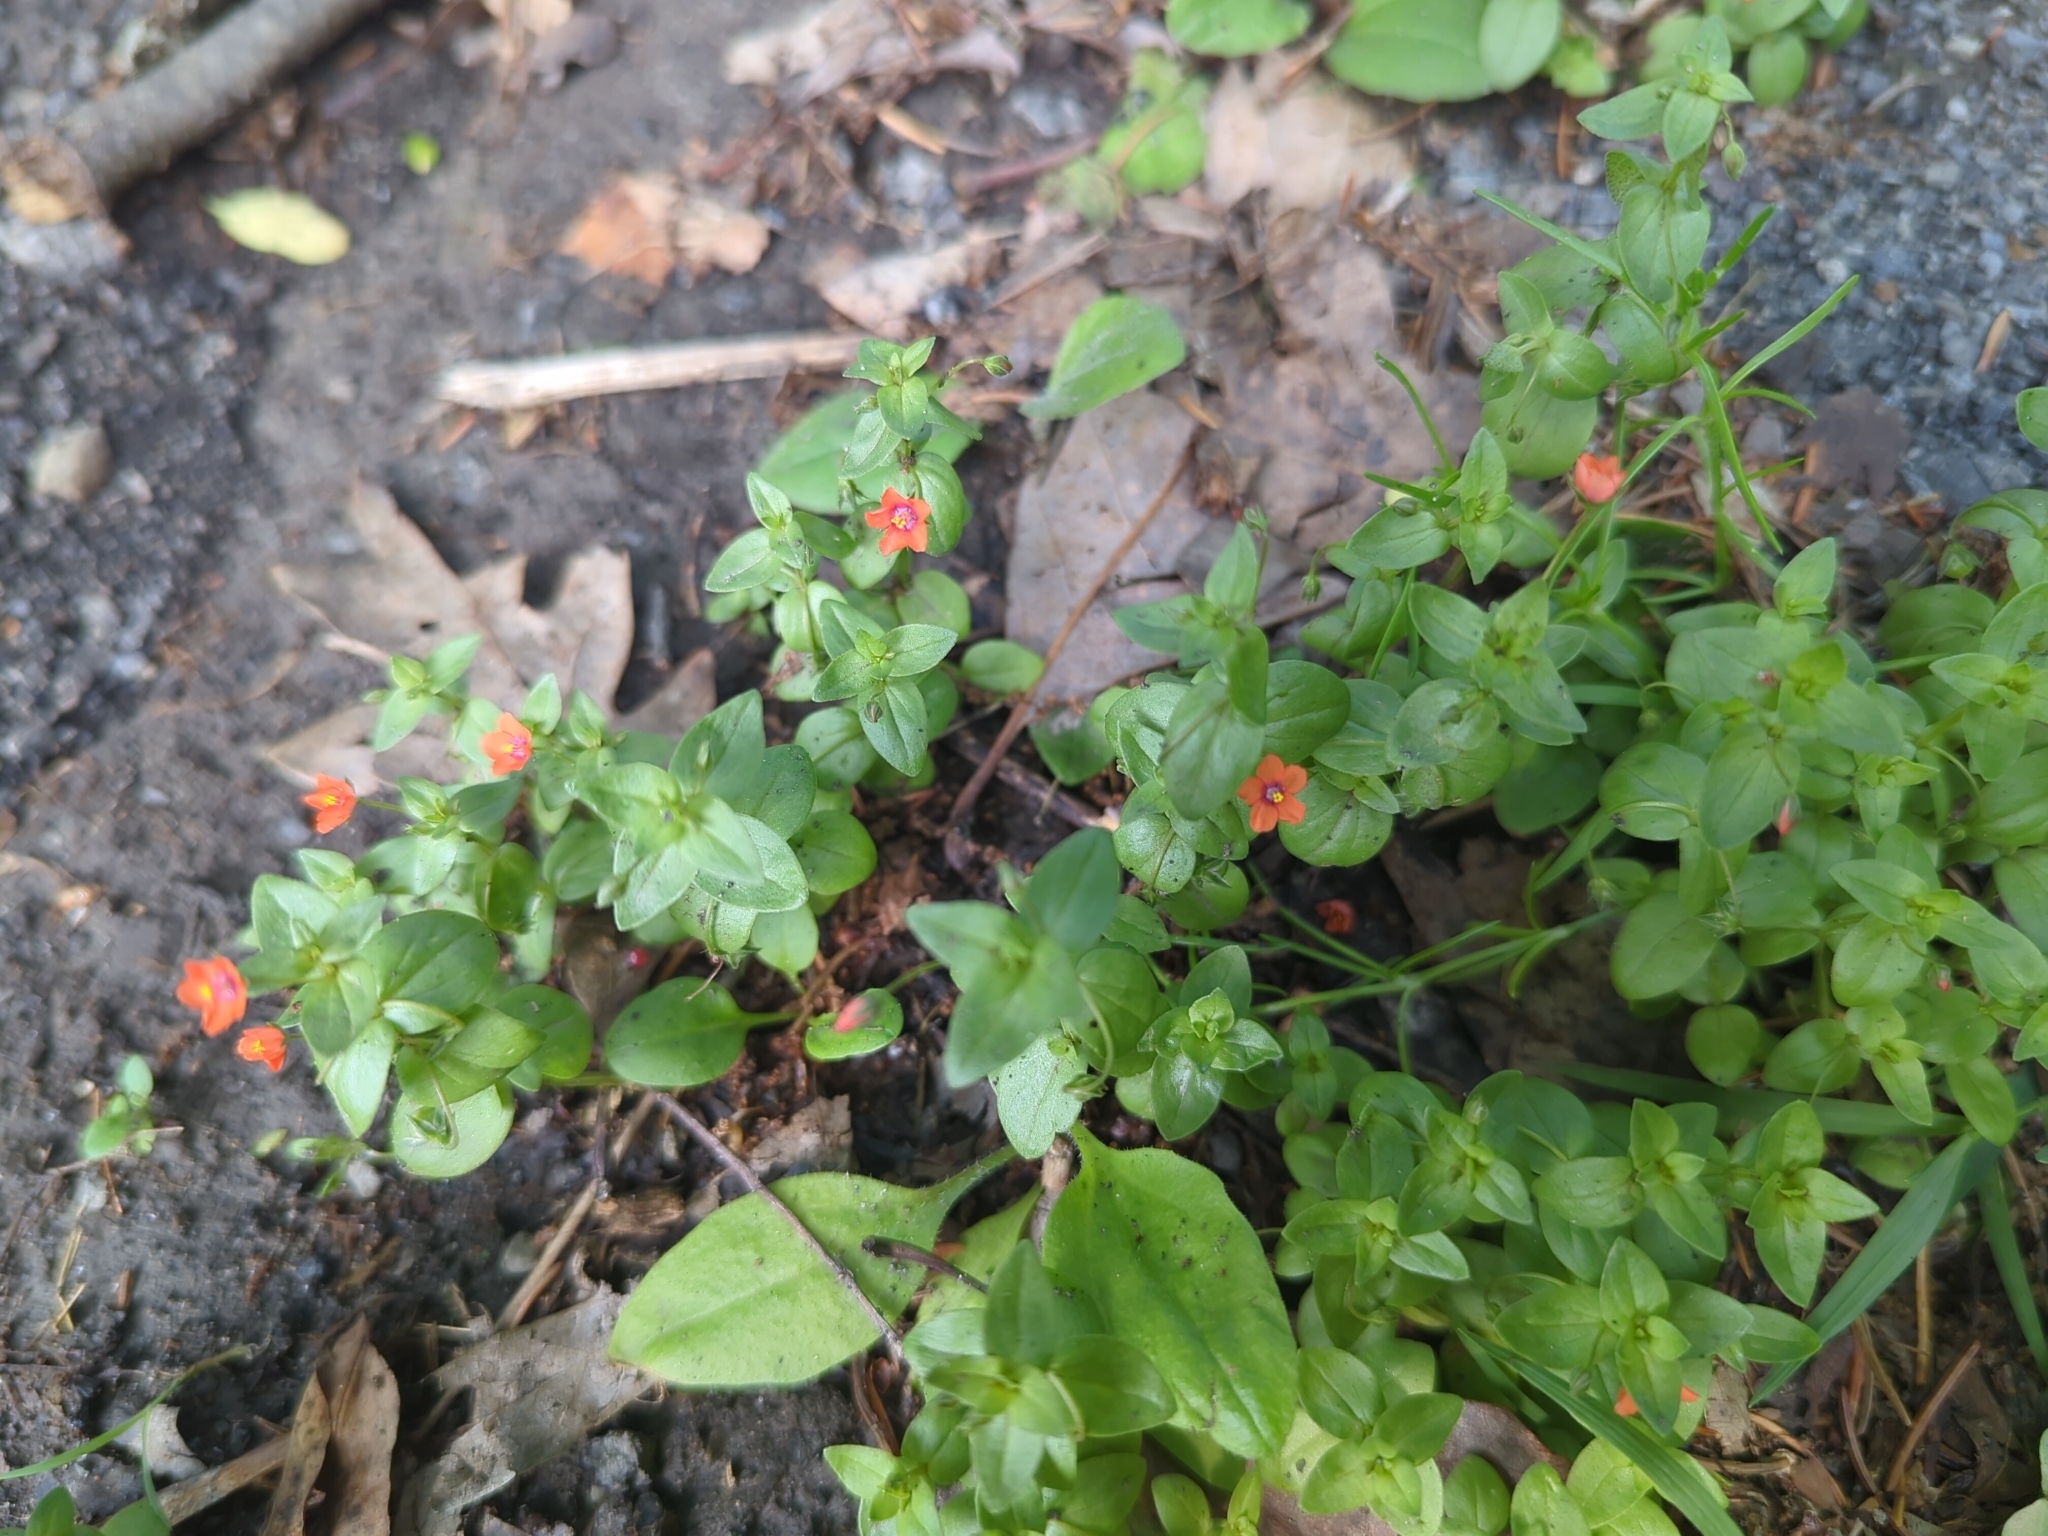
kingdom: Plantae
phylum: Tracheophyta
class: Magnoliopsida
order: Ericales
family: Primulaceae
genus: Lysimachia
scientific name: Lysimachia arvensis
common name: Scarlet pimpernel
